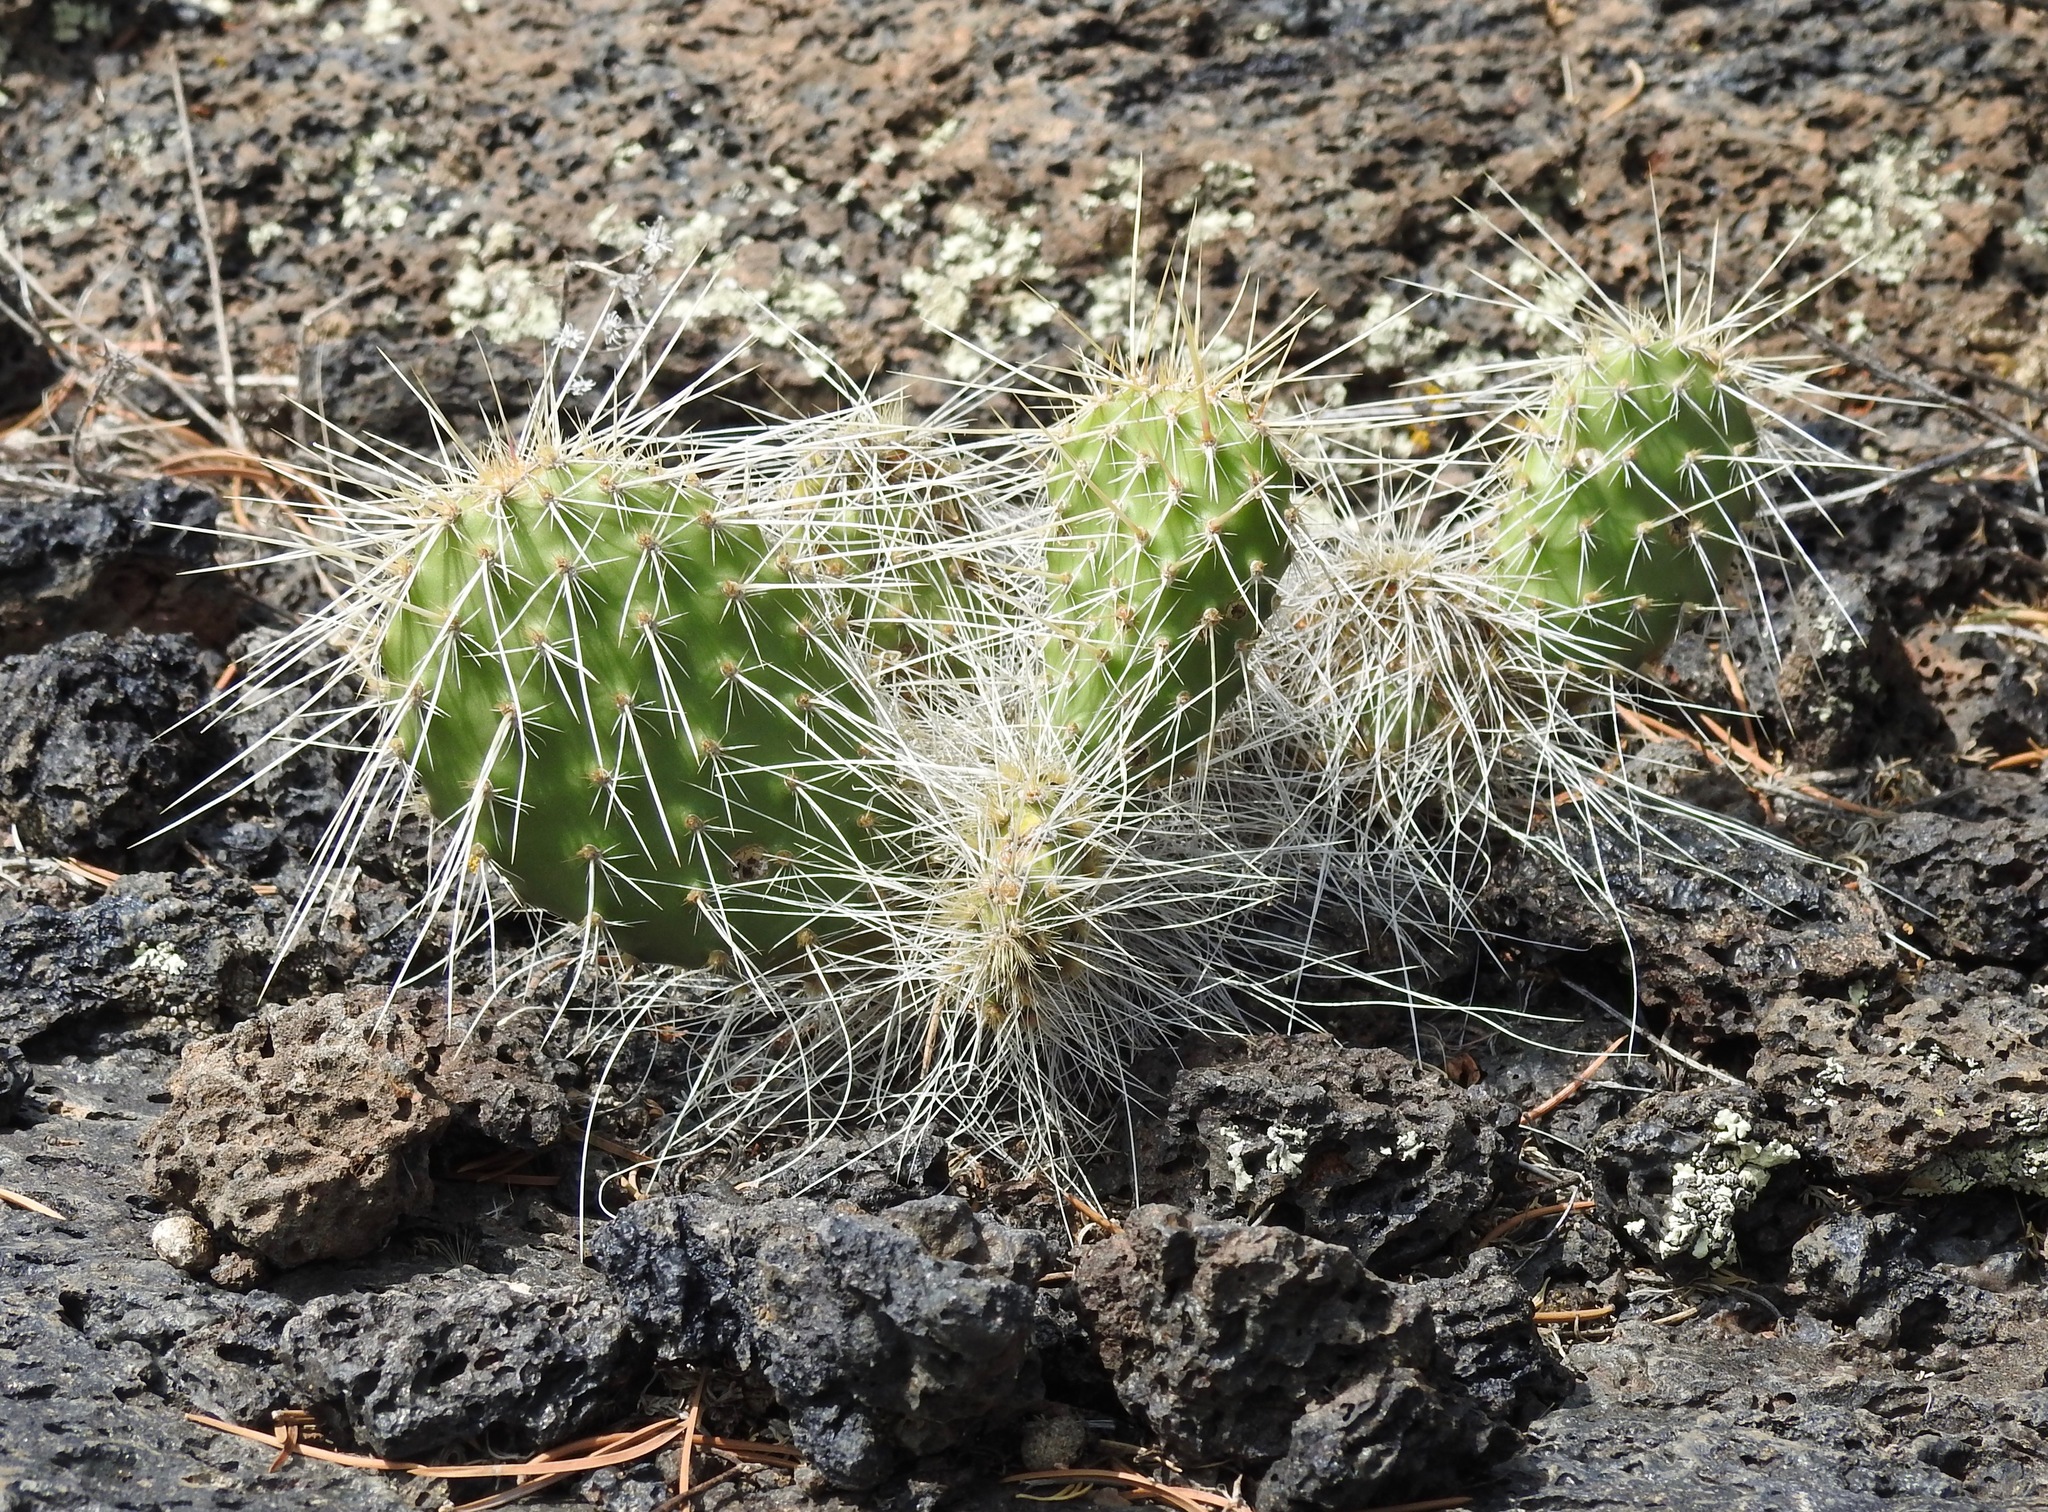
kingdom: Plantae
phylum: Tracheophyta
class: Magnoliopsida
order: Caryophyllales
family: Cactaceae
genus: Opuntia
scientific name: Opuntia polyacantha
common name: Plains prickly-pear
